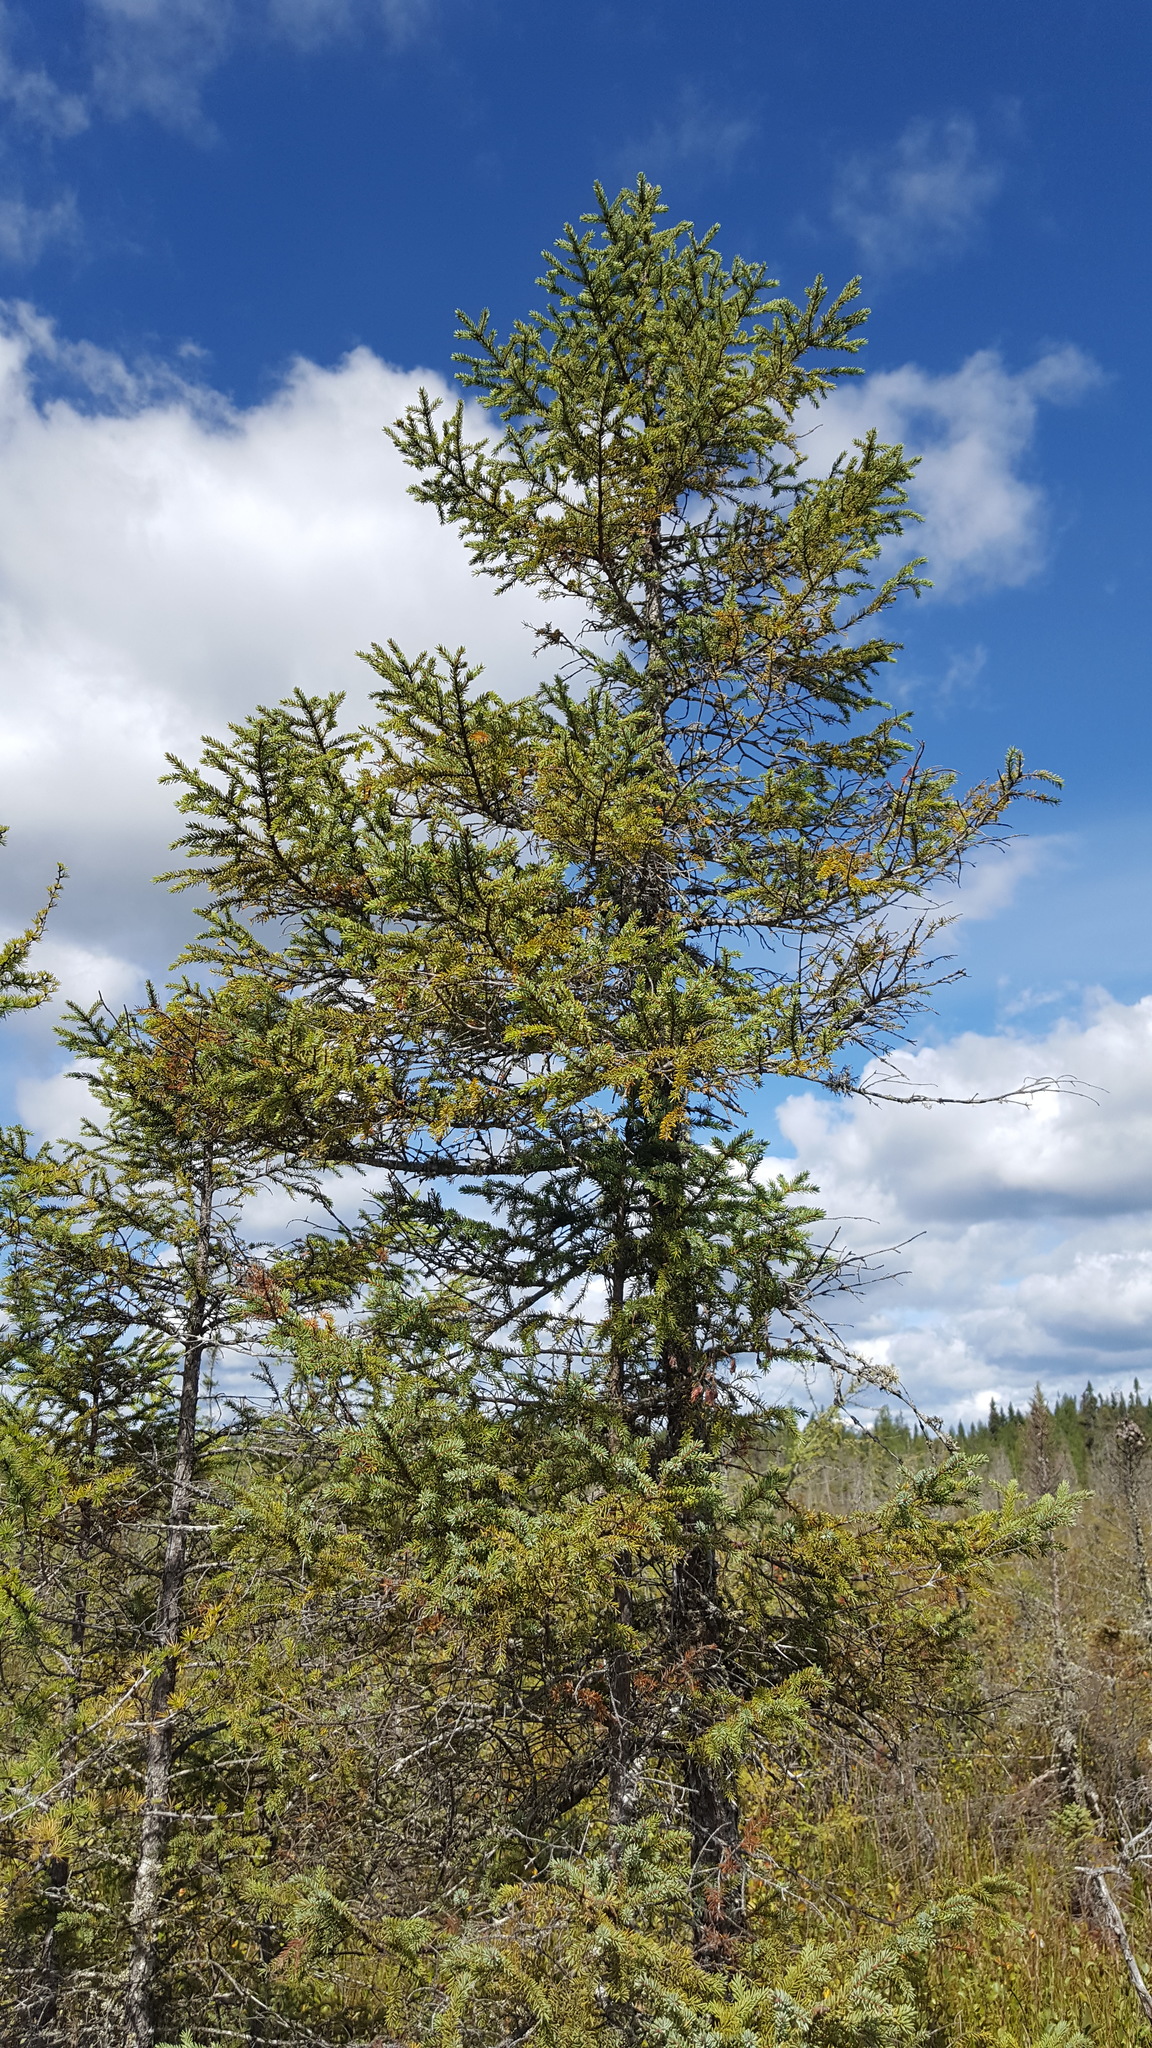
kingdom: Plantae
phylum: Tracheophyta
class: Pinopsida
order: Pinales
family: Pinaceae
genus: Picea
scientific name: Picea mariana
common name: Black spruce
